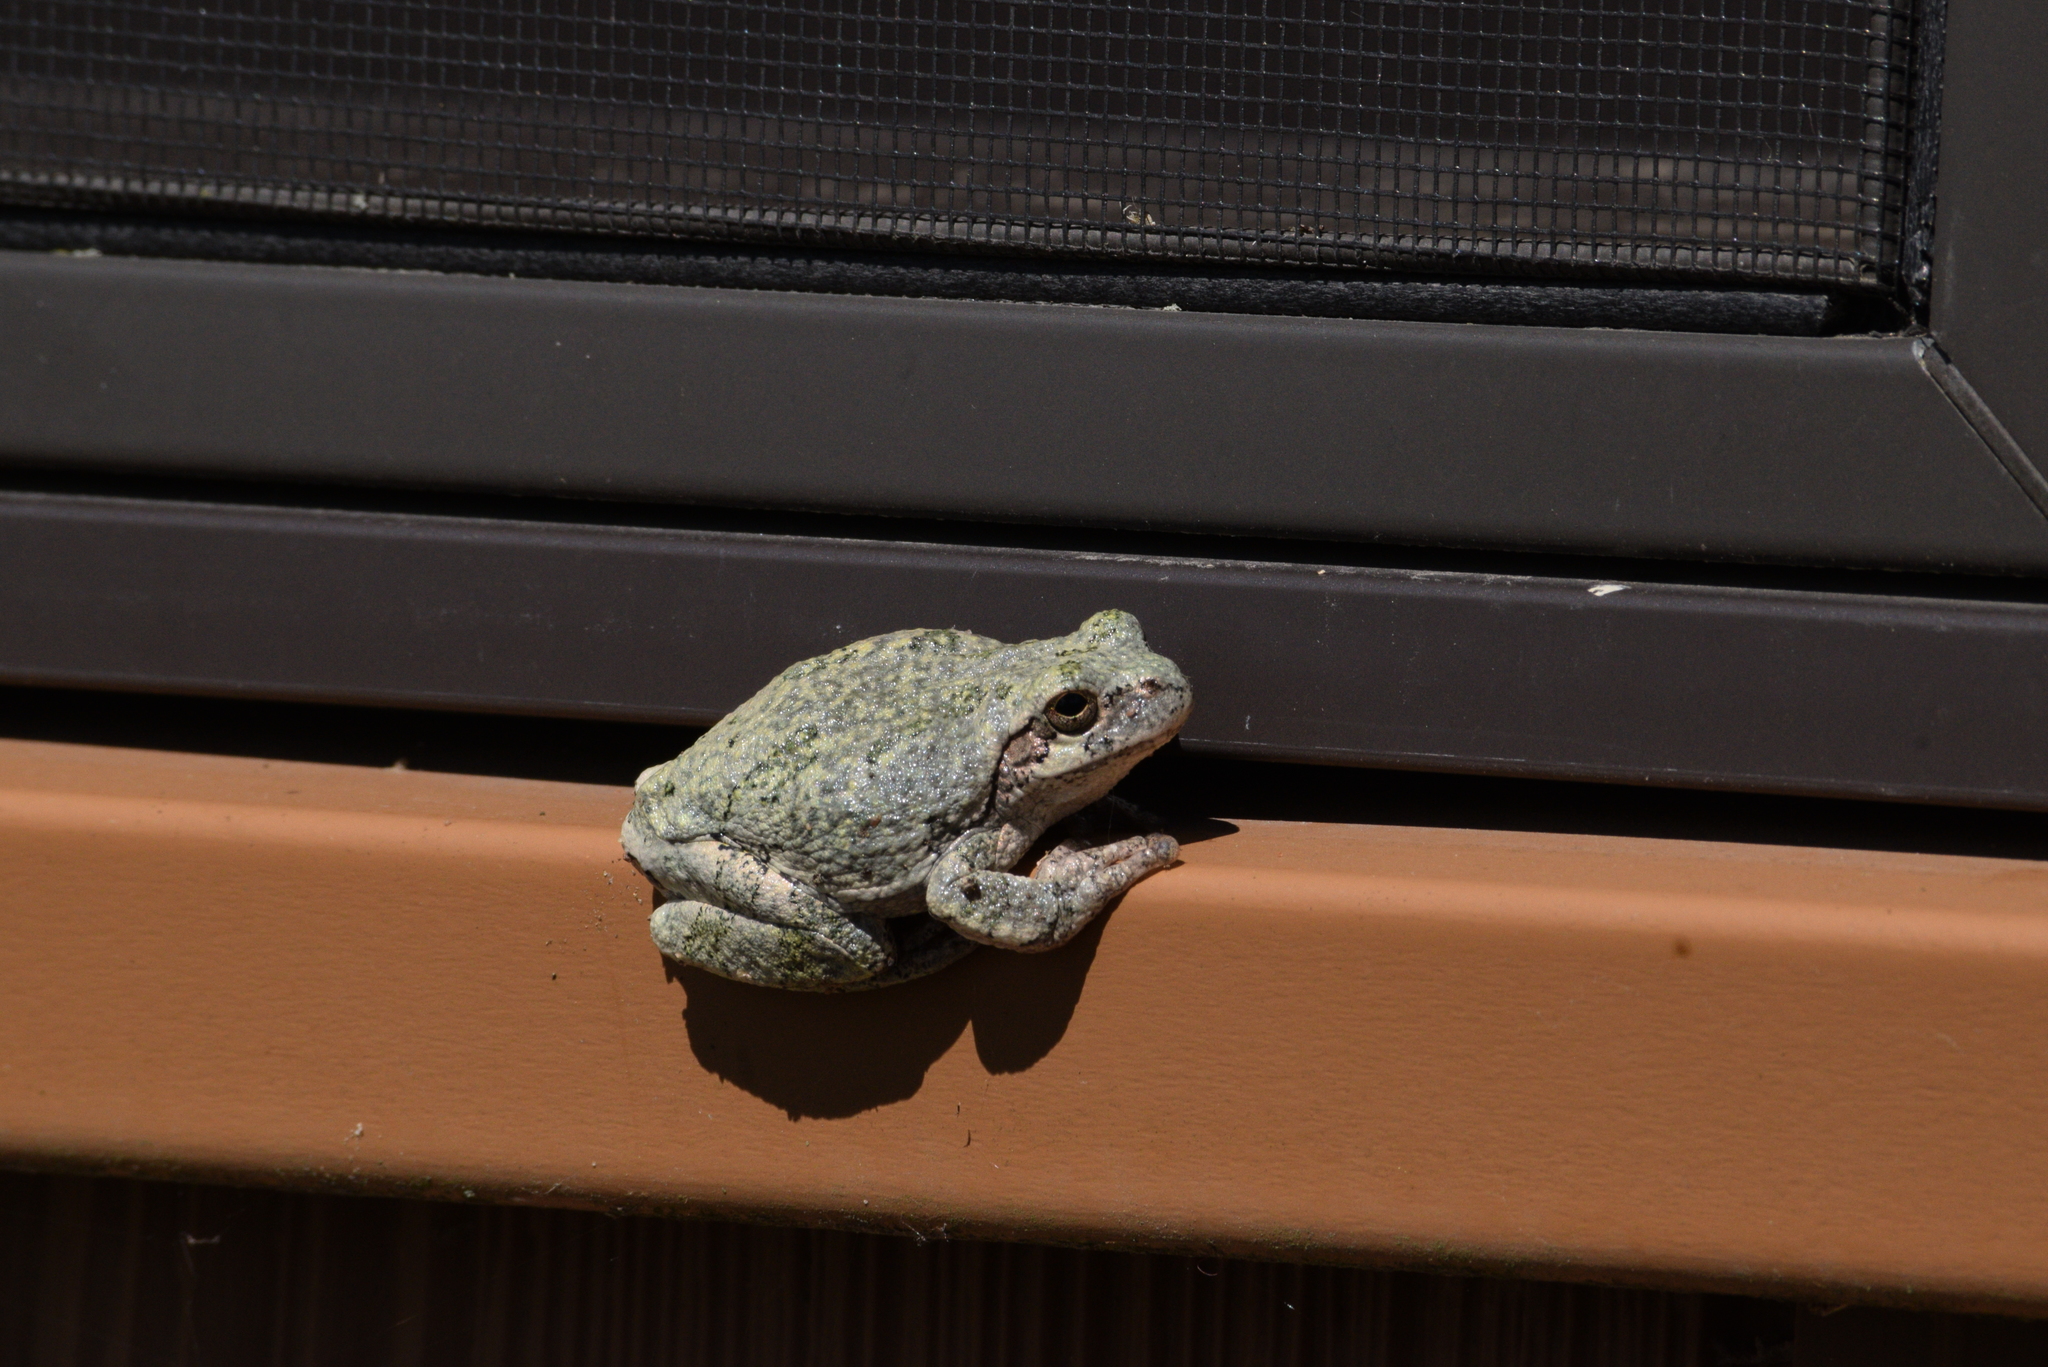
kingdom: Animalia
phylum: Chordata
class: Amphibia
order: Anura
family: Hylidae
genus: Hyla
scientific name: Hyla
